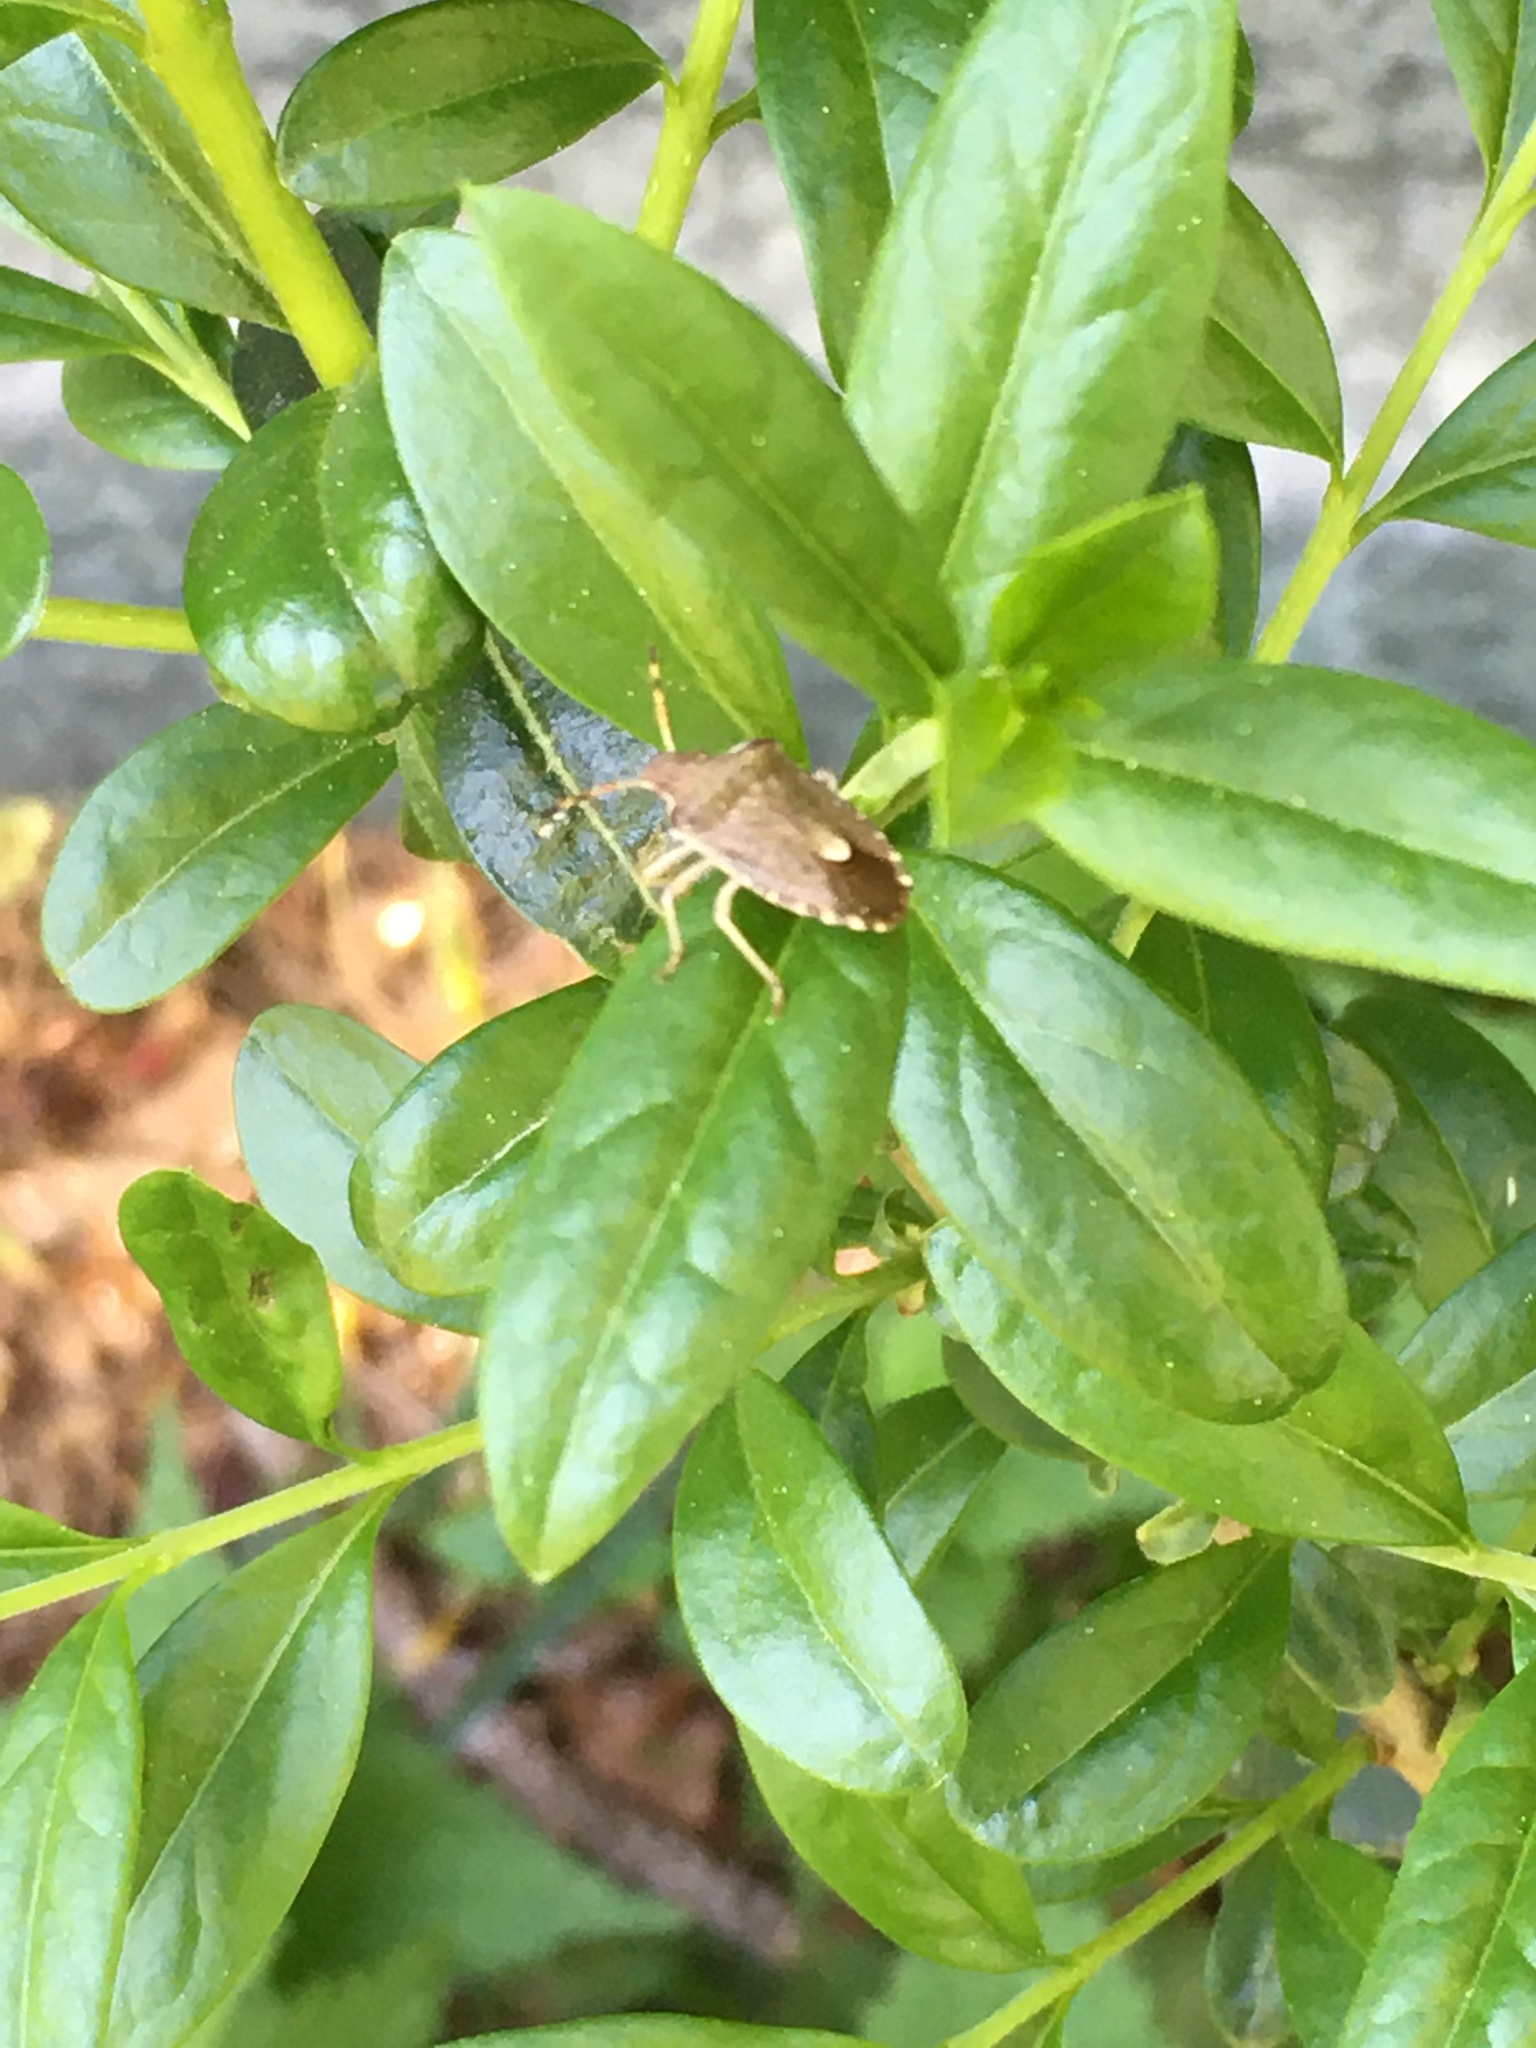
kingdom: Animalia
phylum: Arthropoda
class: Insecta
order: Hemiptera
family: Pentatomidae
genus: Holcostethus
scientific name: Holcostethus strictus
